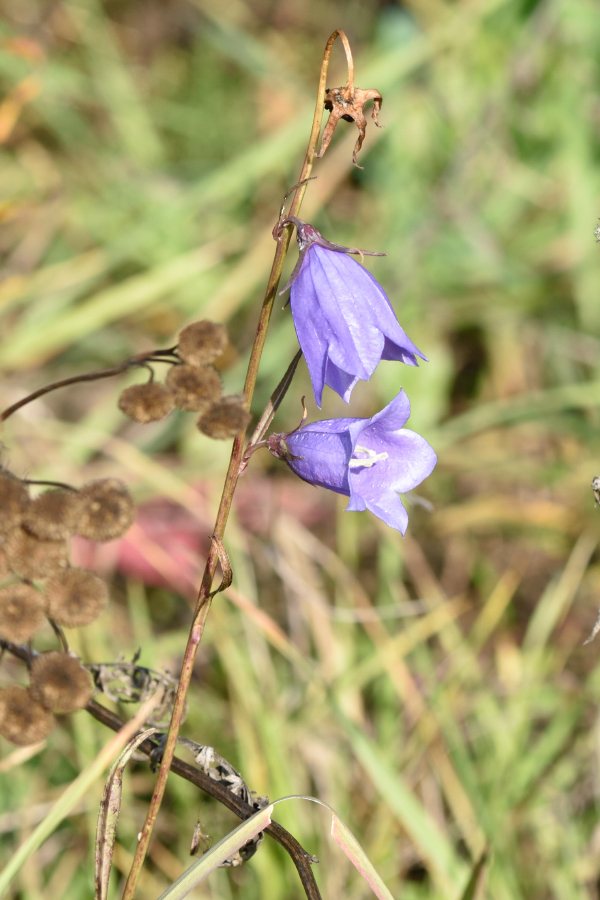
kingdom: Plantae
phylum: Tracheophyta
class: Magnoliopsida
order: Asterales
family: Campanulaceae
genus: Campanula
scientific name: Campanula persicifolia
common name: Peach-leaved bellflower
